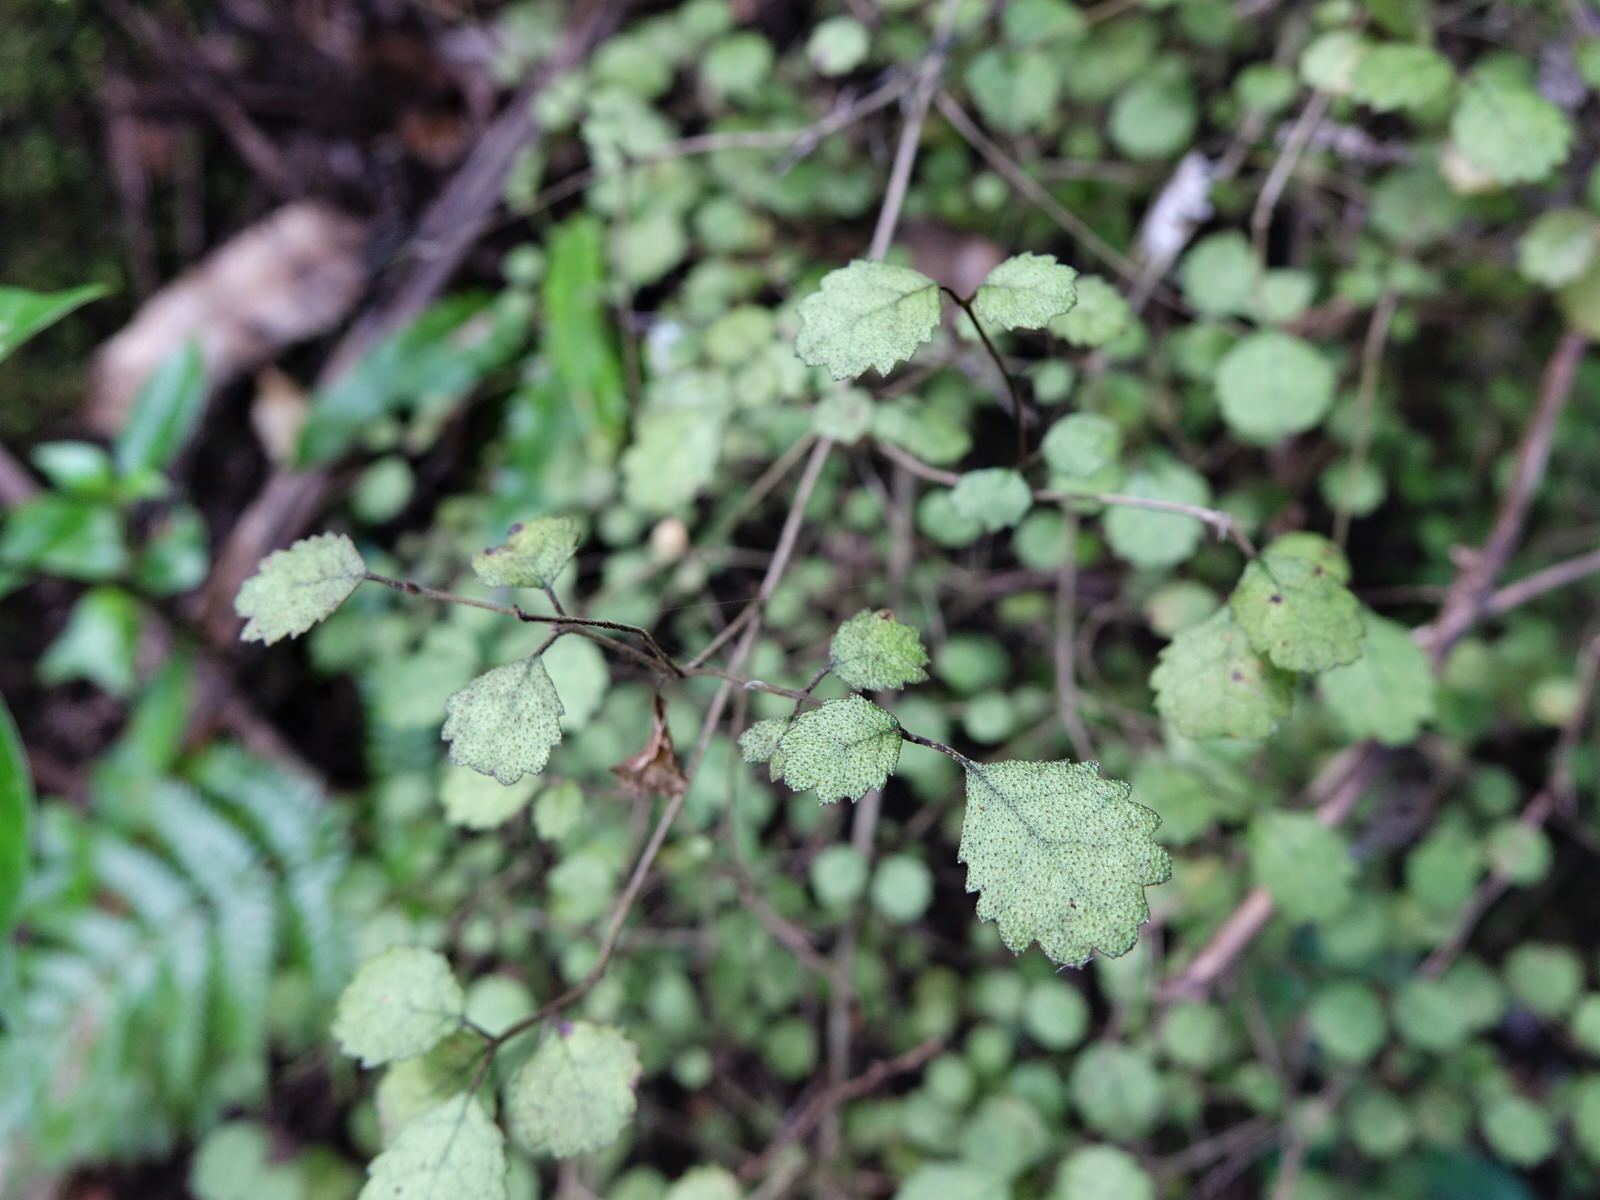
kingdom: Plantae
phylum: Tracheophyta
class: Magnoliopsida
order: Lamiales
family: Gesneriaceae
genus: Rhabdothamnus
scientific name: Rhabdothamnus solandri
